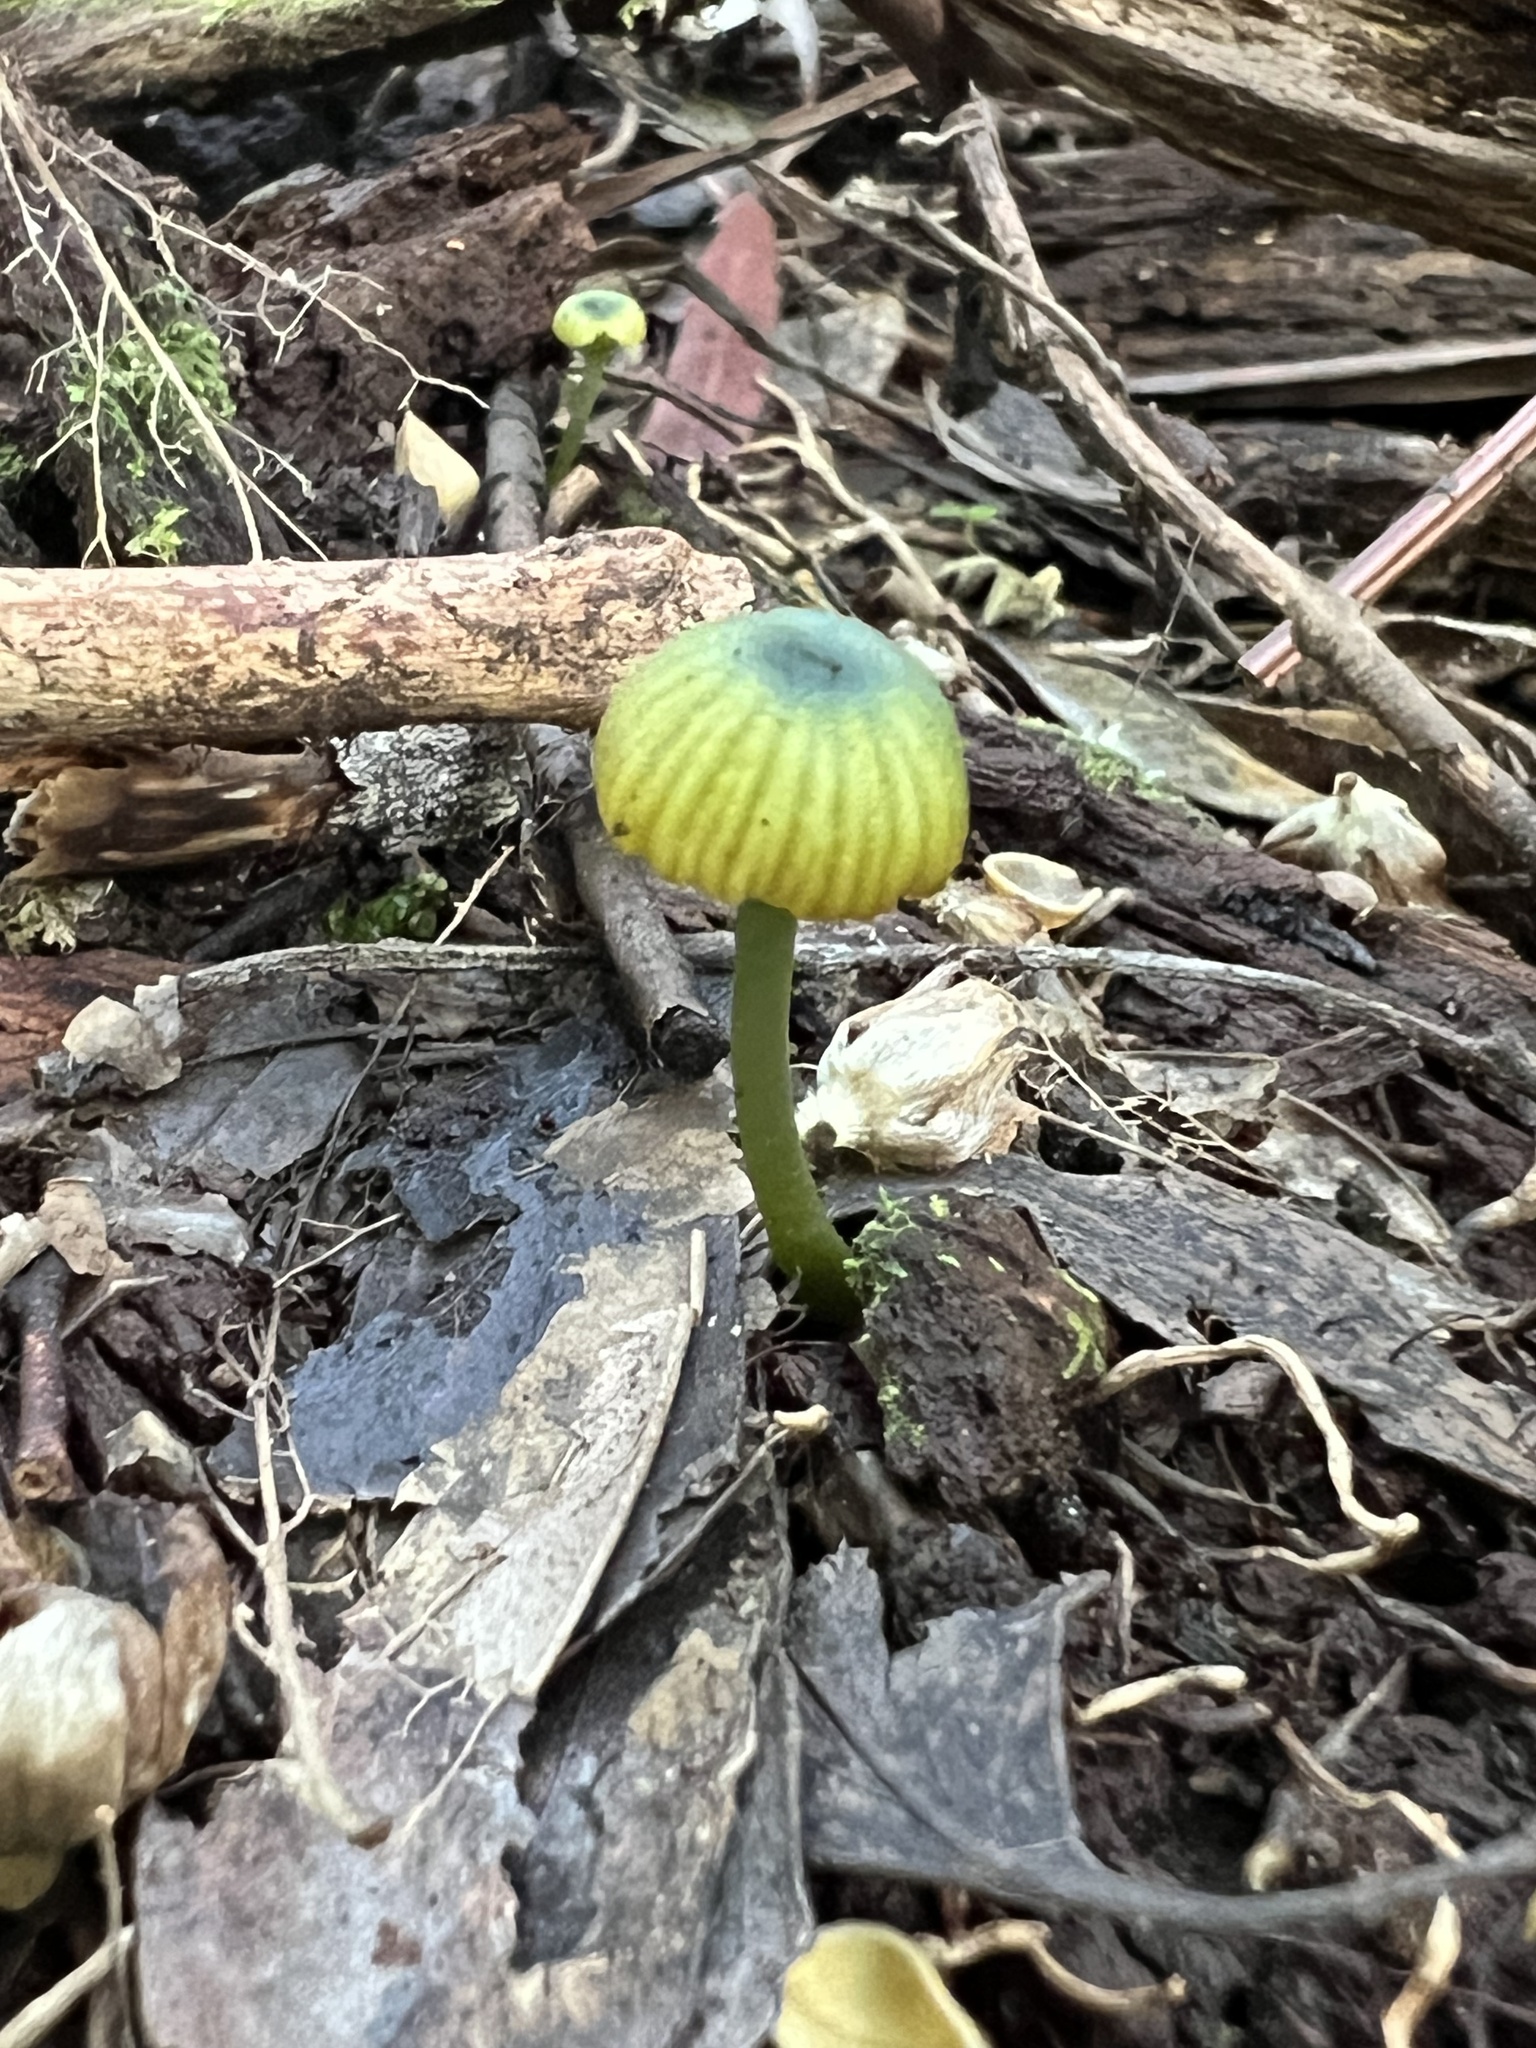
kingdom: Fungi
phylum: Basidiomycota
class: Agaricomycetes
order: Agaricales
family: Entolomataceae
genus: Entoloma
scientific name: Entoloma rodwayi
